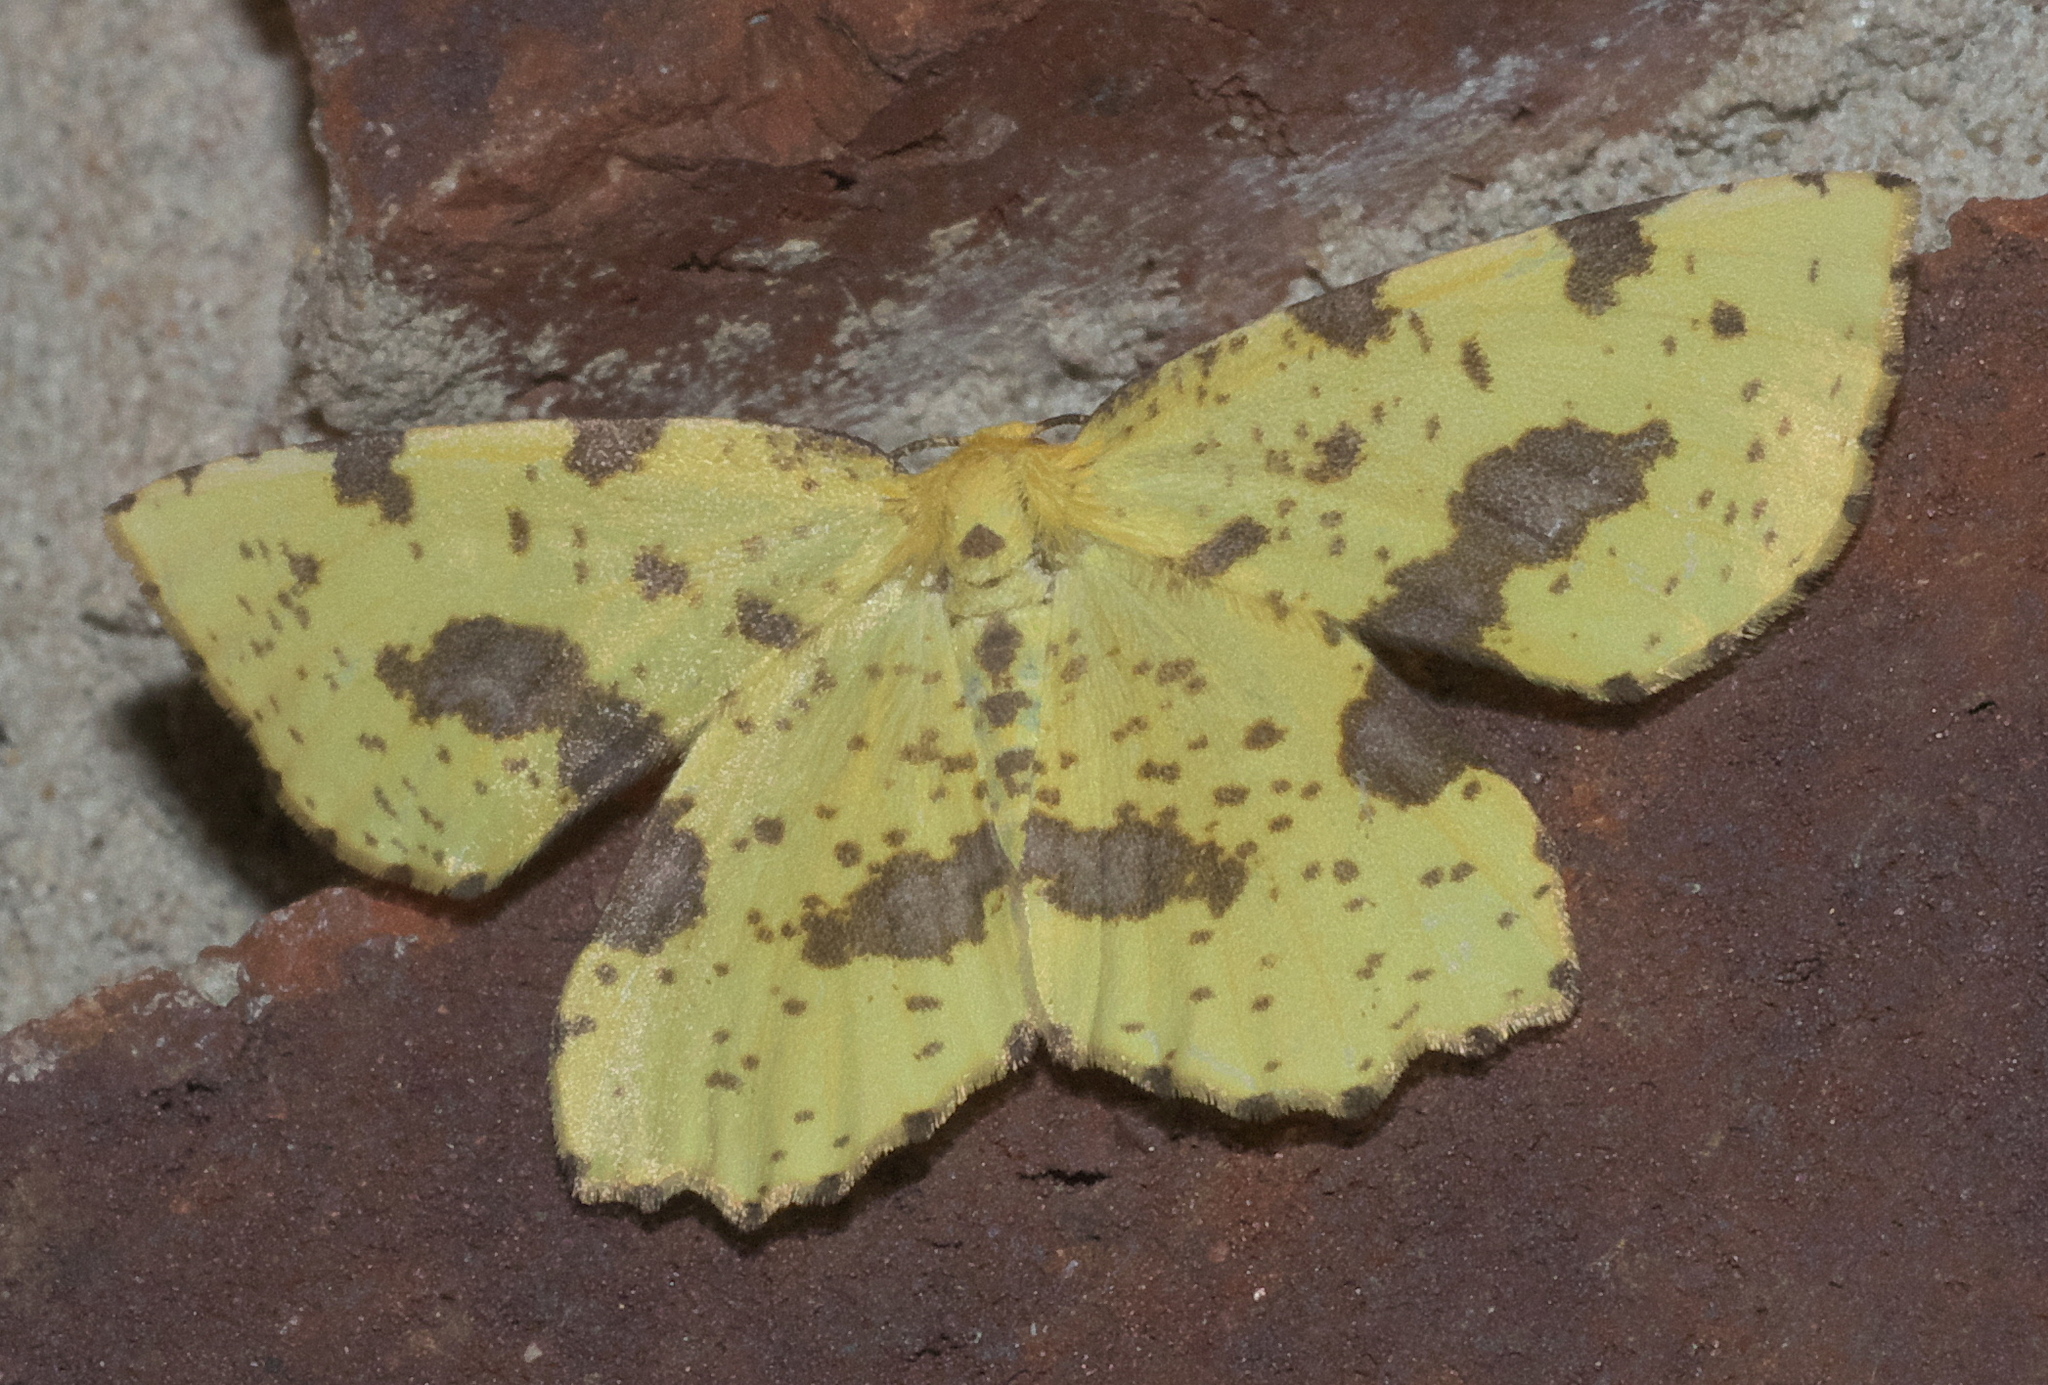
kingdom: Animalia
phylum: Arthropoda
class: Insecta
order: Lepidoptera
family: Geometridae
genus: Xanthotype
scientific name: Xanthotype
